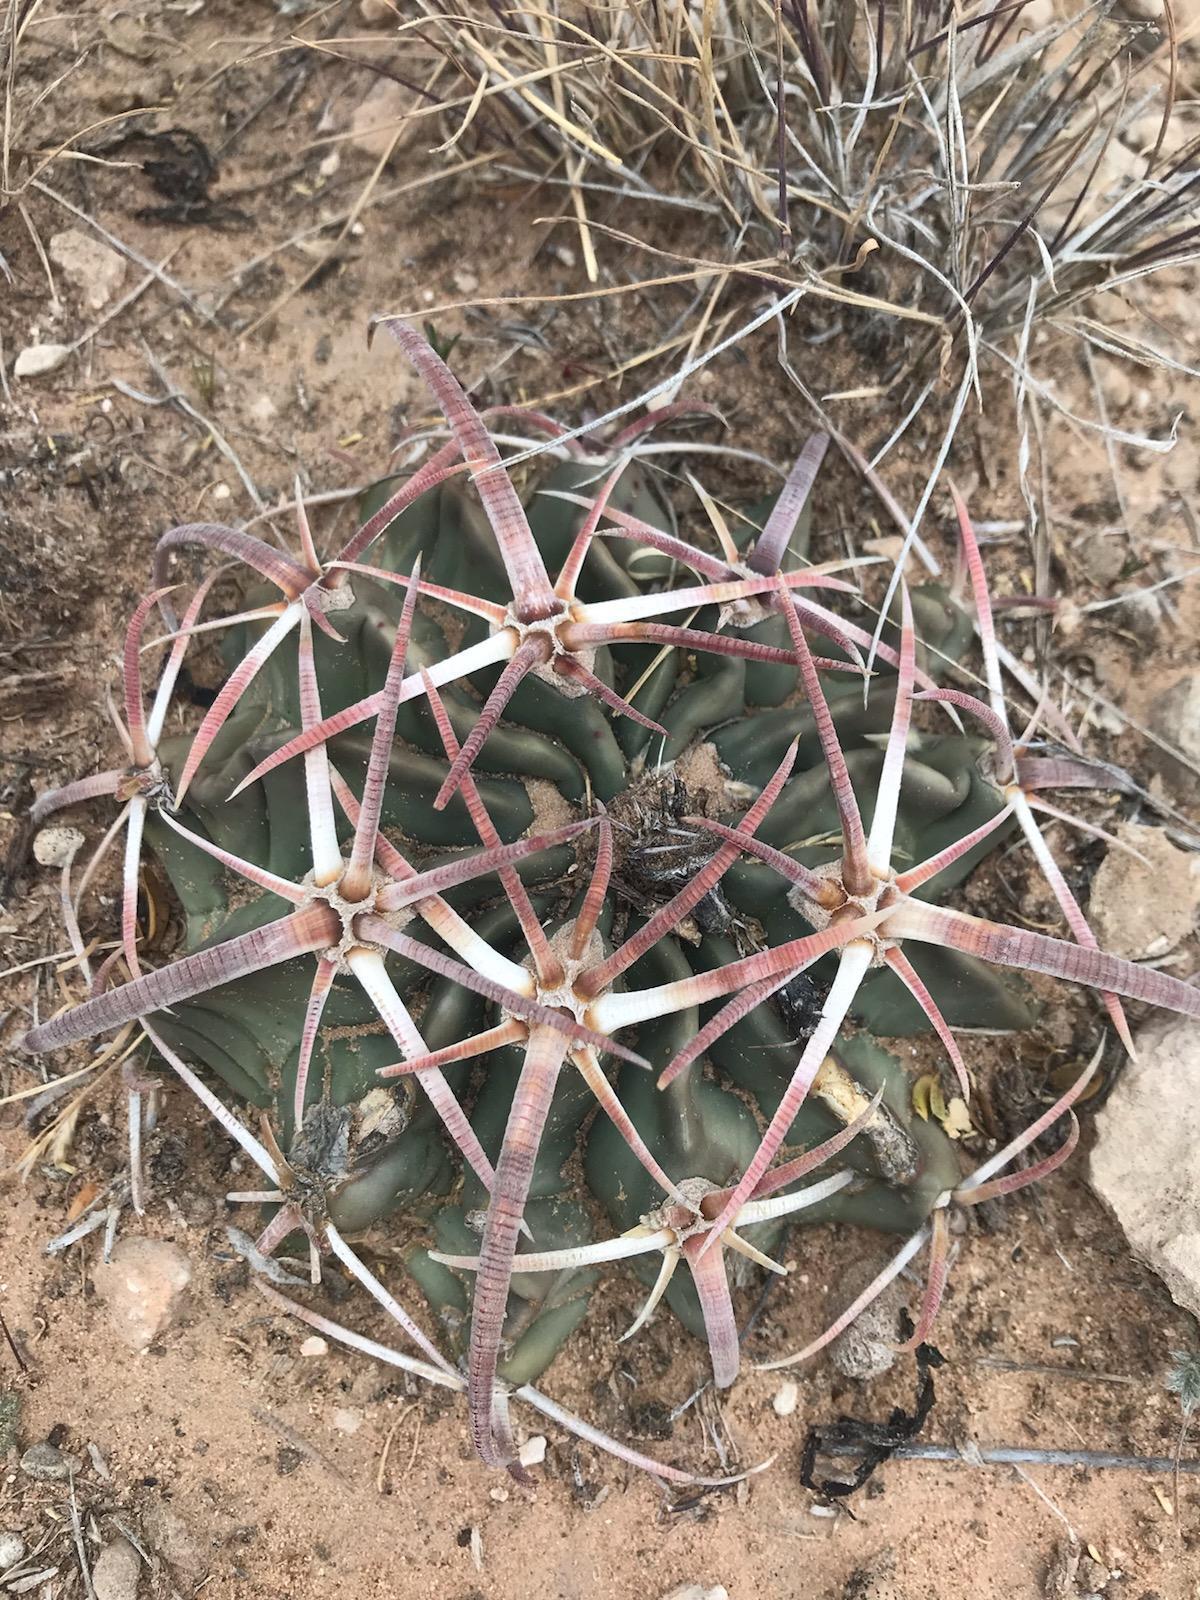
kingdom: Plantae
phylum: Tracheophyta
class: Magnoliopsida
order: Caryophyllales
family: Cactaceae
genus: Echinocactus
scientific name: Echinocactus texensis
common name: Devil's pincushion
